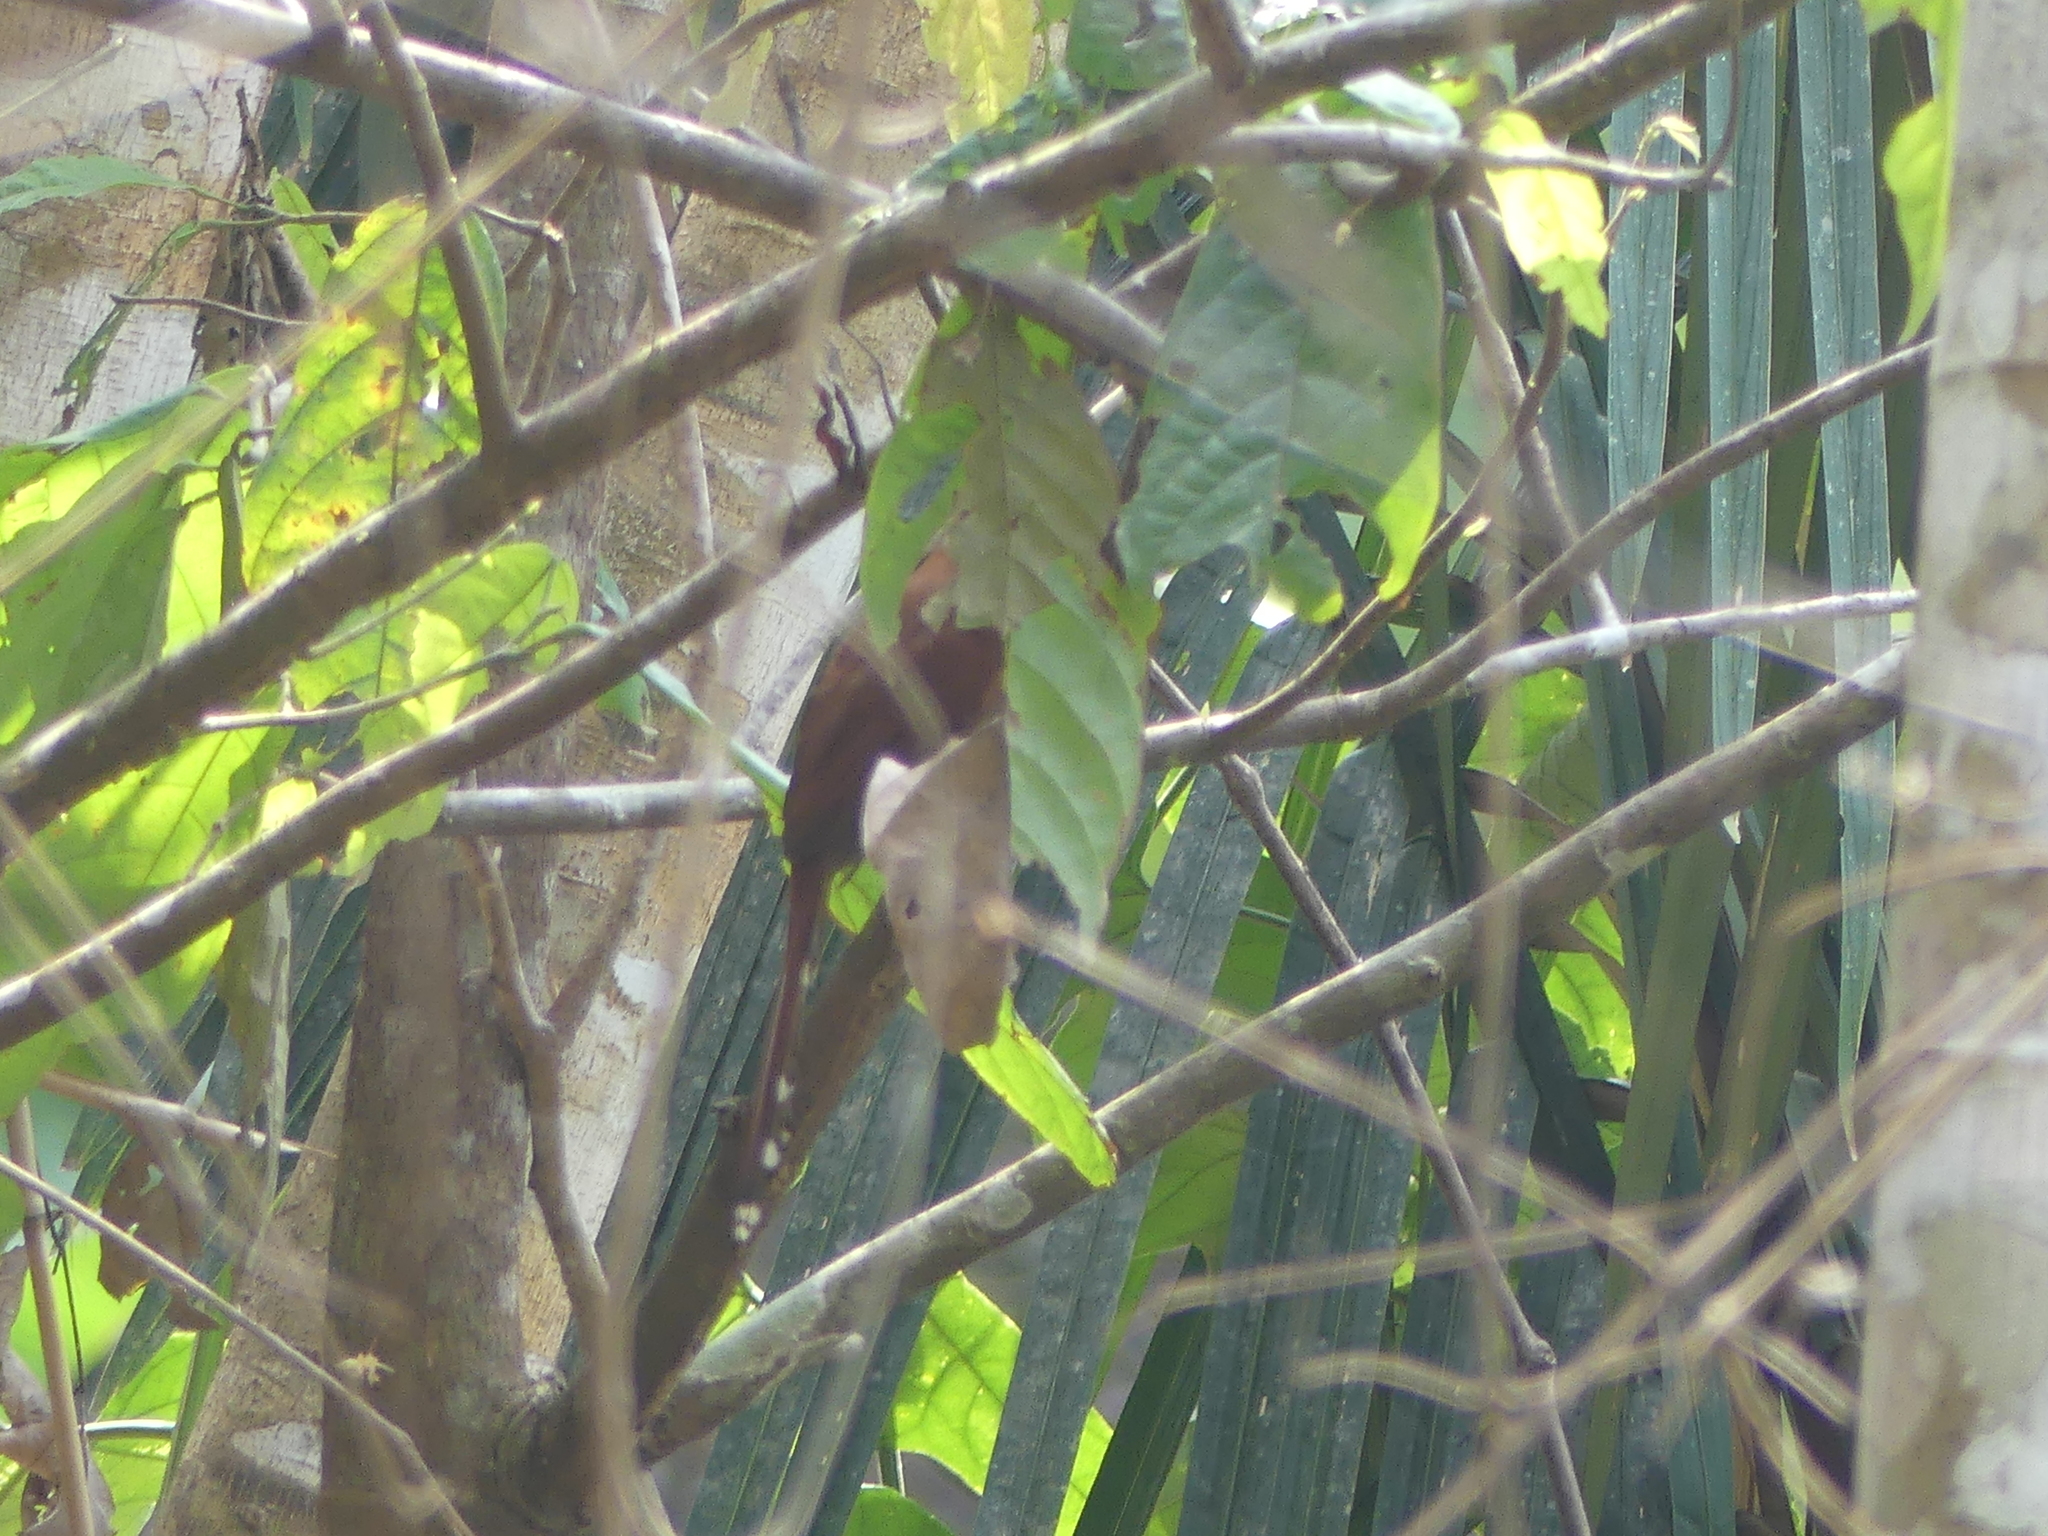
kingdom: Animalia
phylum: Chordata
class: Aves
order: Cuculiformes
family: Cuculidae
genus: Piaya
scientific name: Piaya minuta
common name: Little cuckoo
